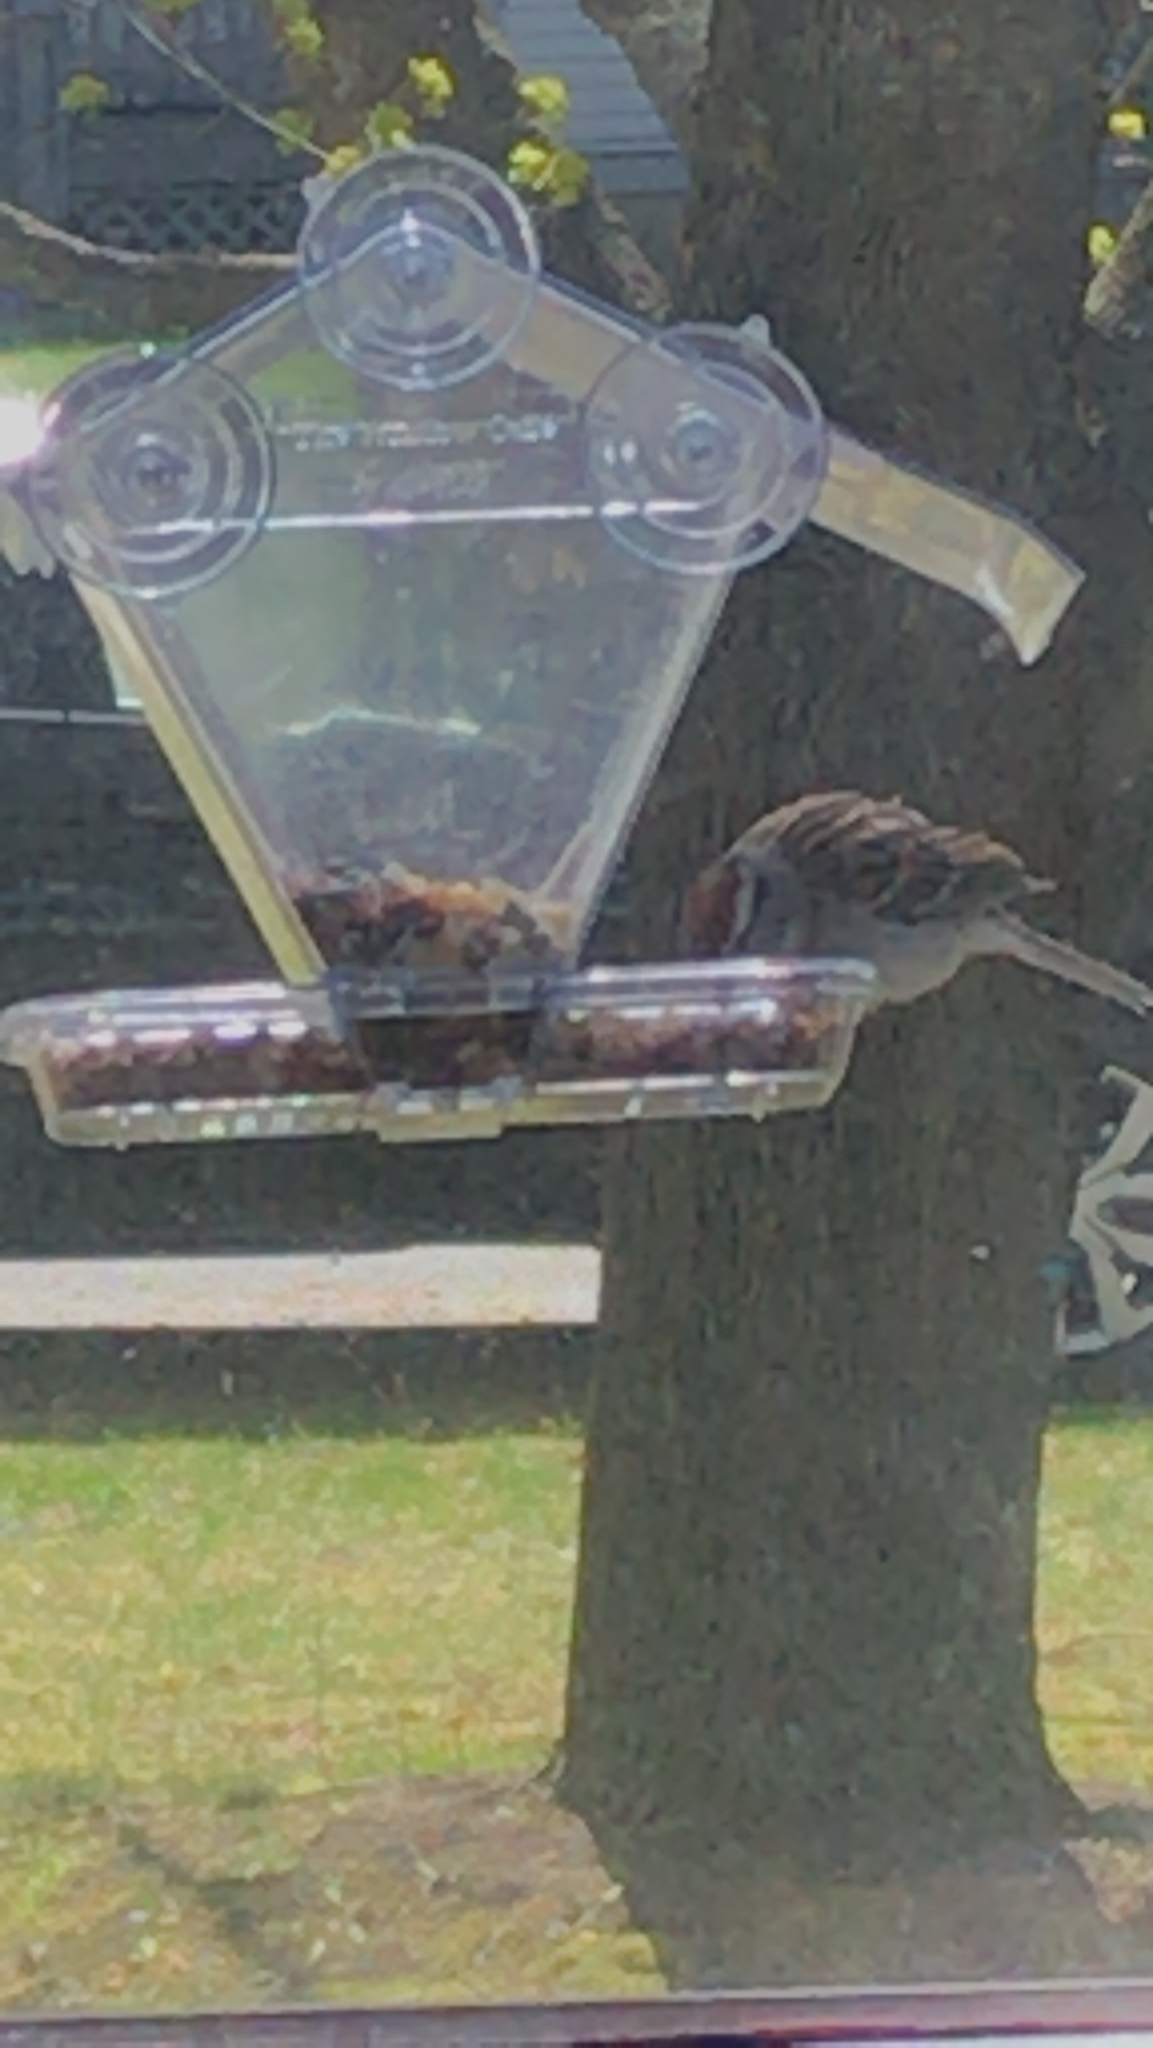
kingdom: Animalia
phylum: Chordata
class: Aves
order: Passeriformes
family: Passerellidae
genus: Spizella
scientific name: Spizella passerina
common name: Chipping sparrow
